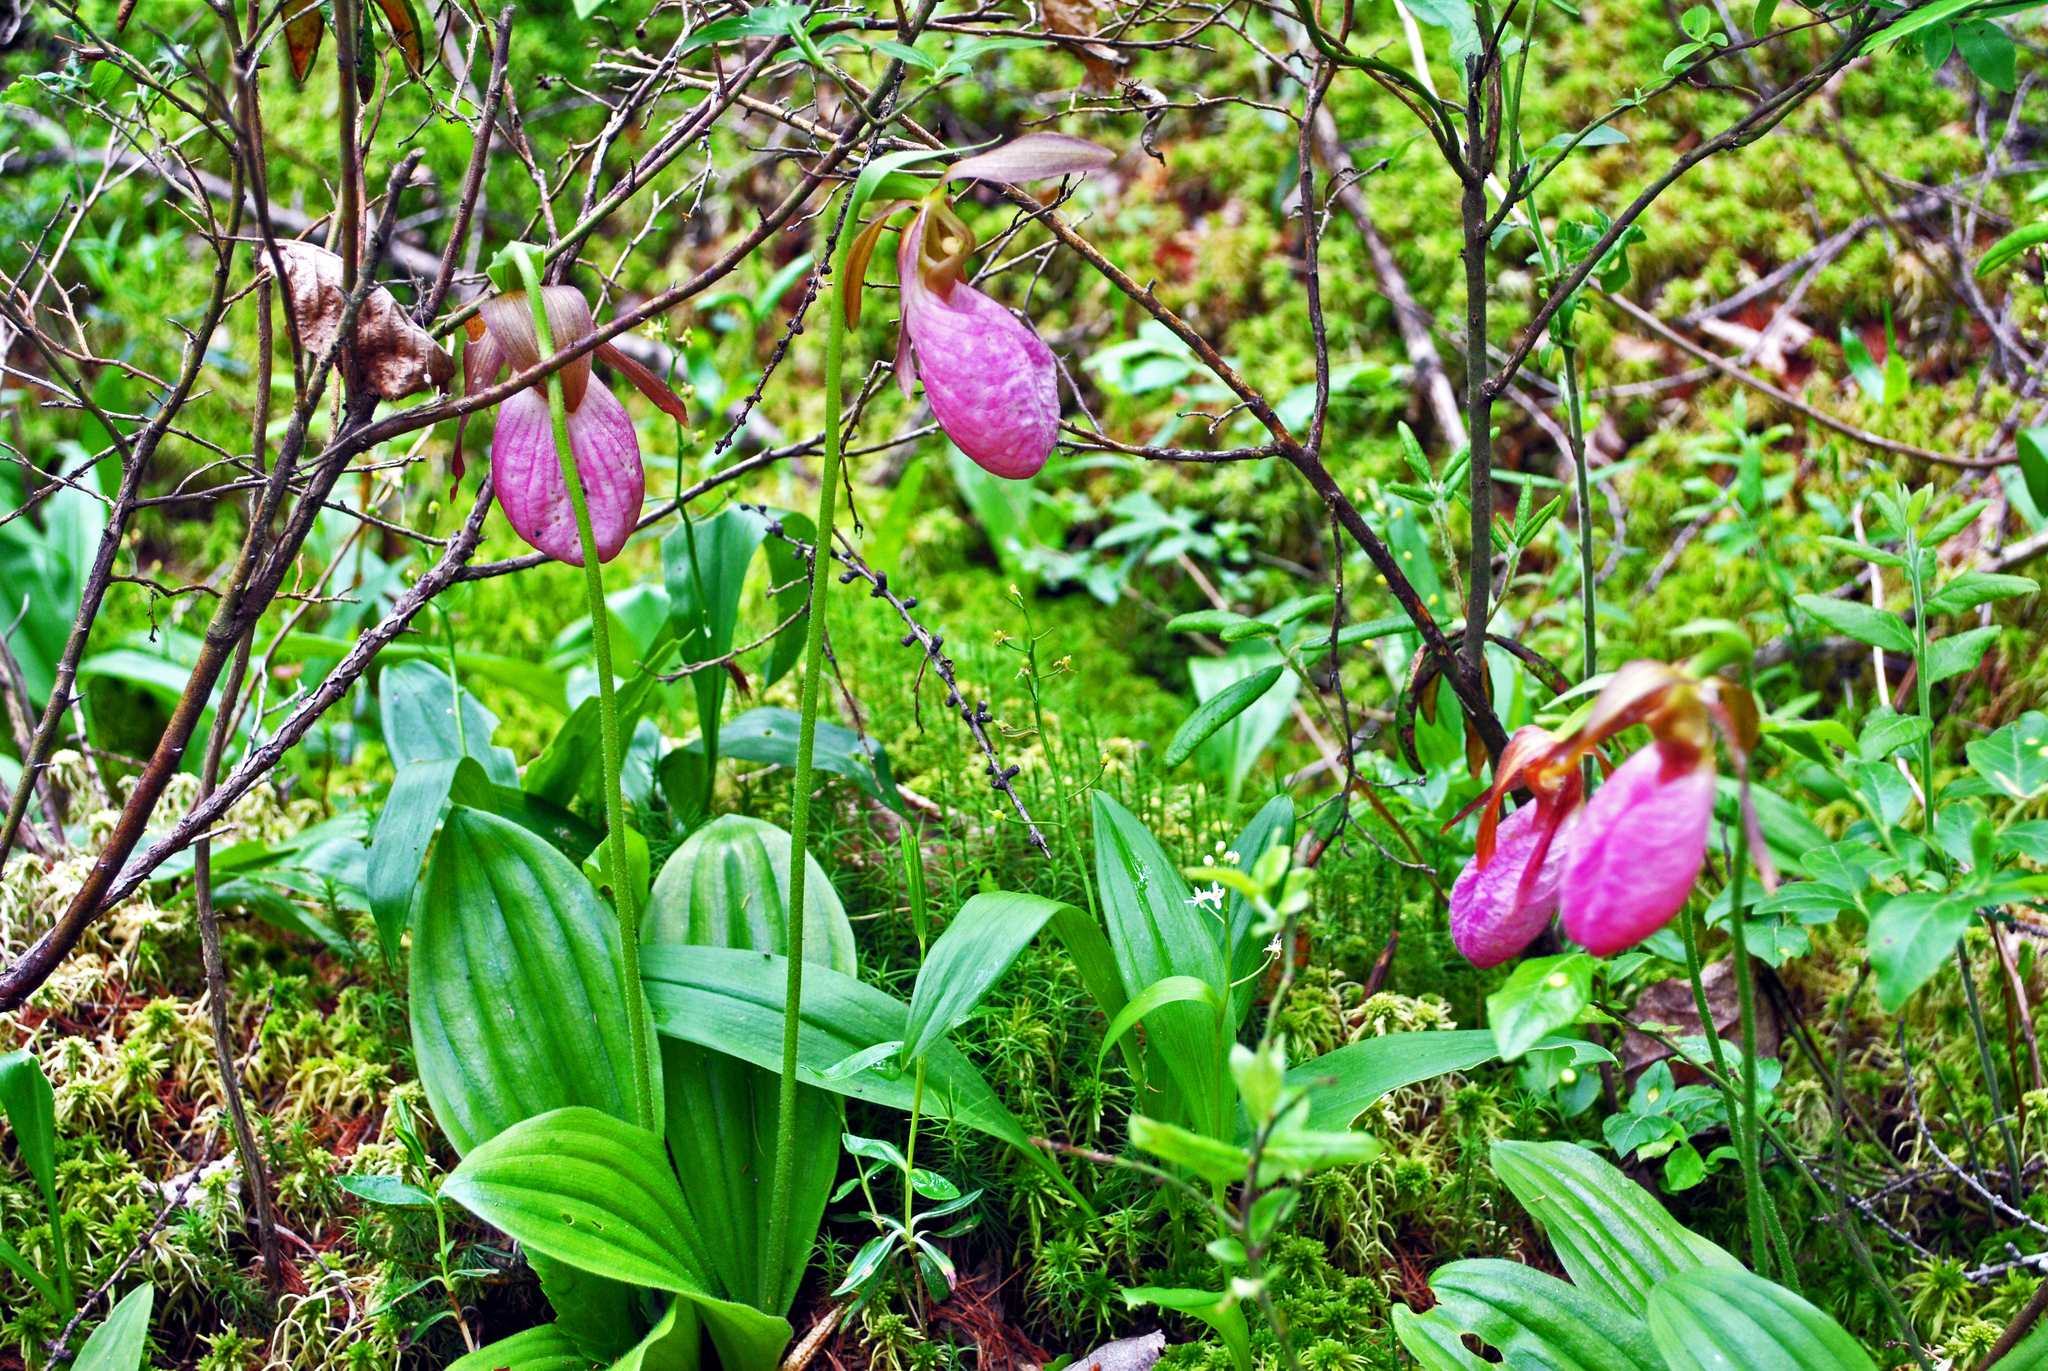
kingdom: Plantae
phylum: Tracheophyta
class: Liliopsida
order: Asparagales
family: Orchidaceae
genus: Cypripedium
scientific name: Cypripedium acaule
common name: Pink lady's-slipper
